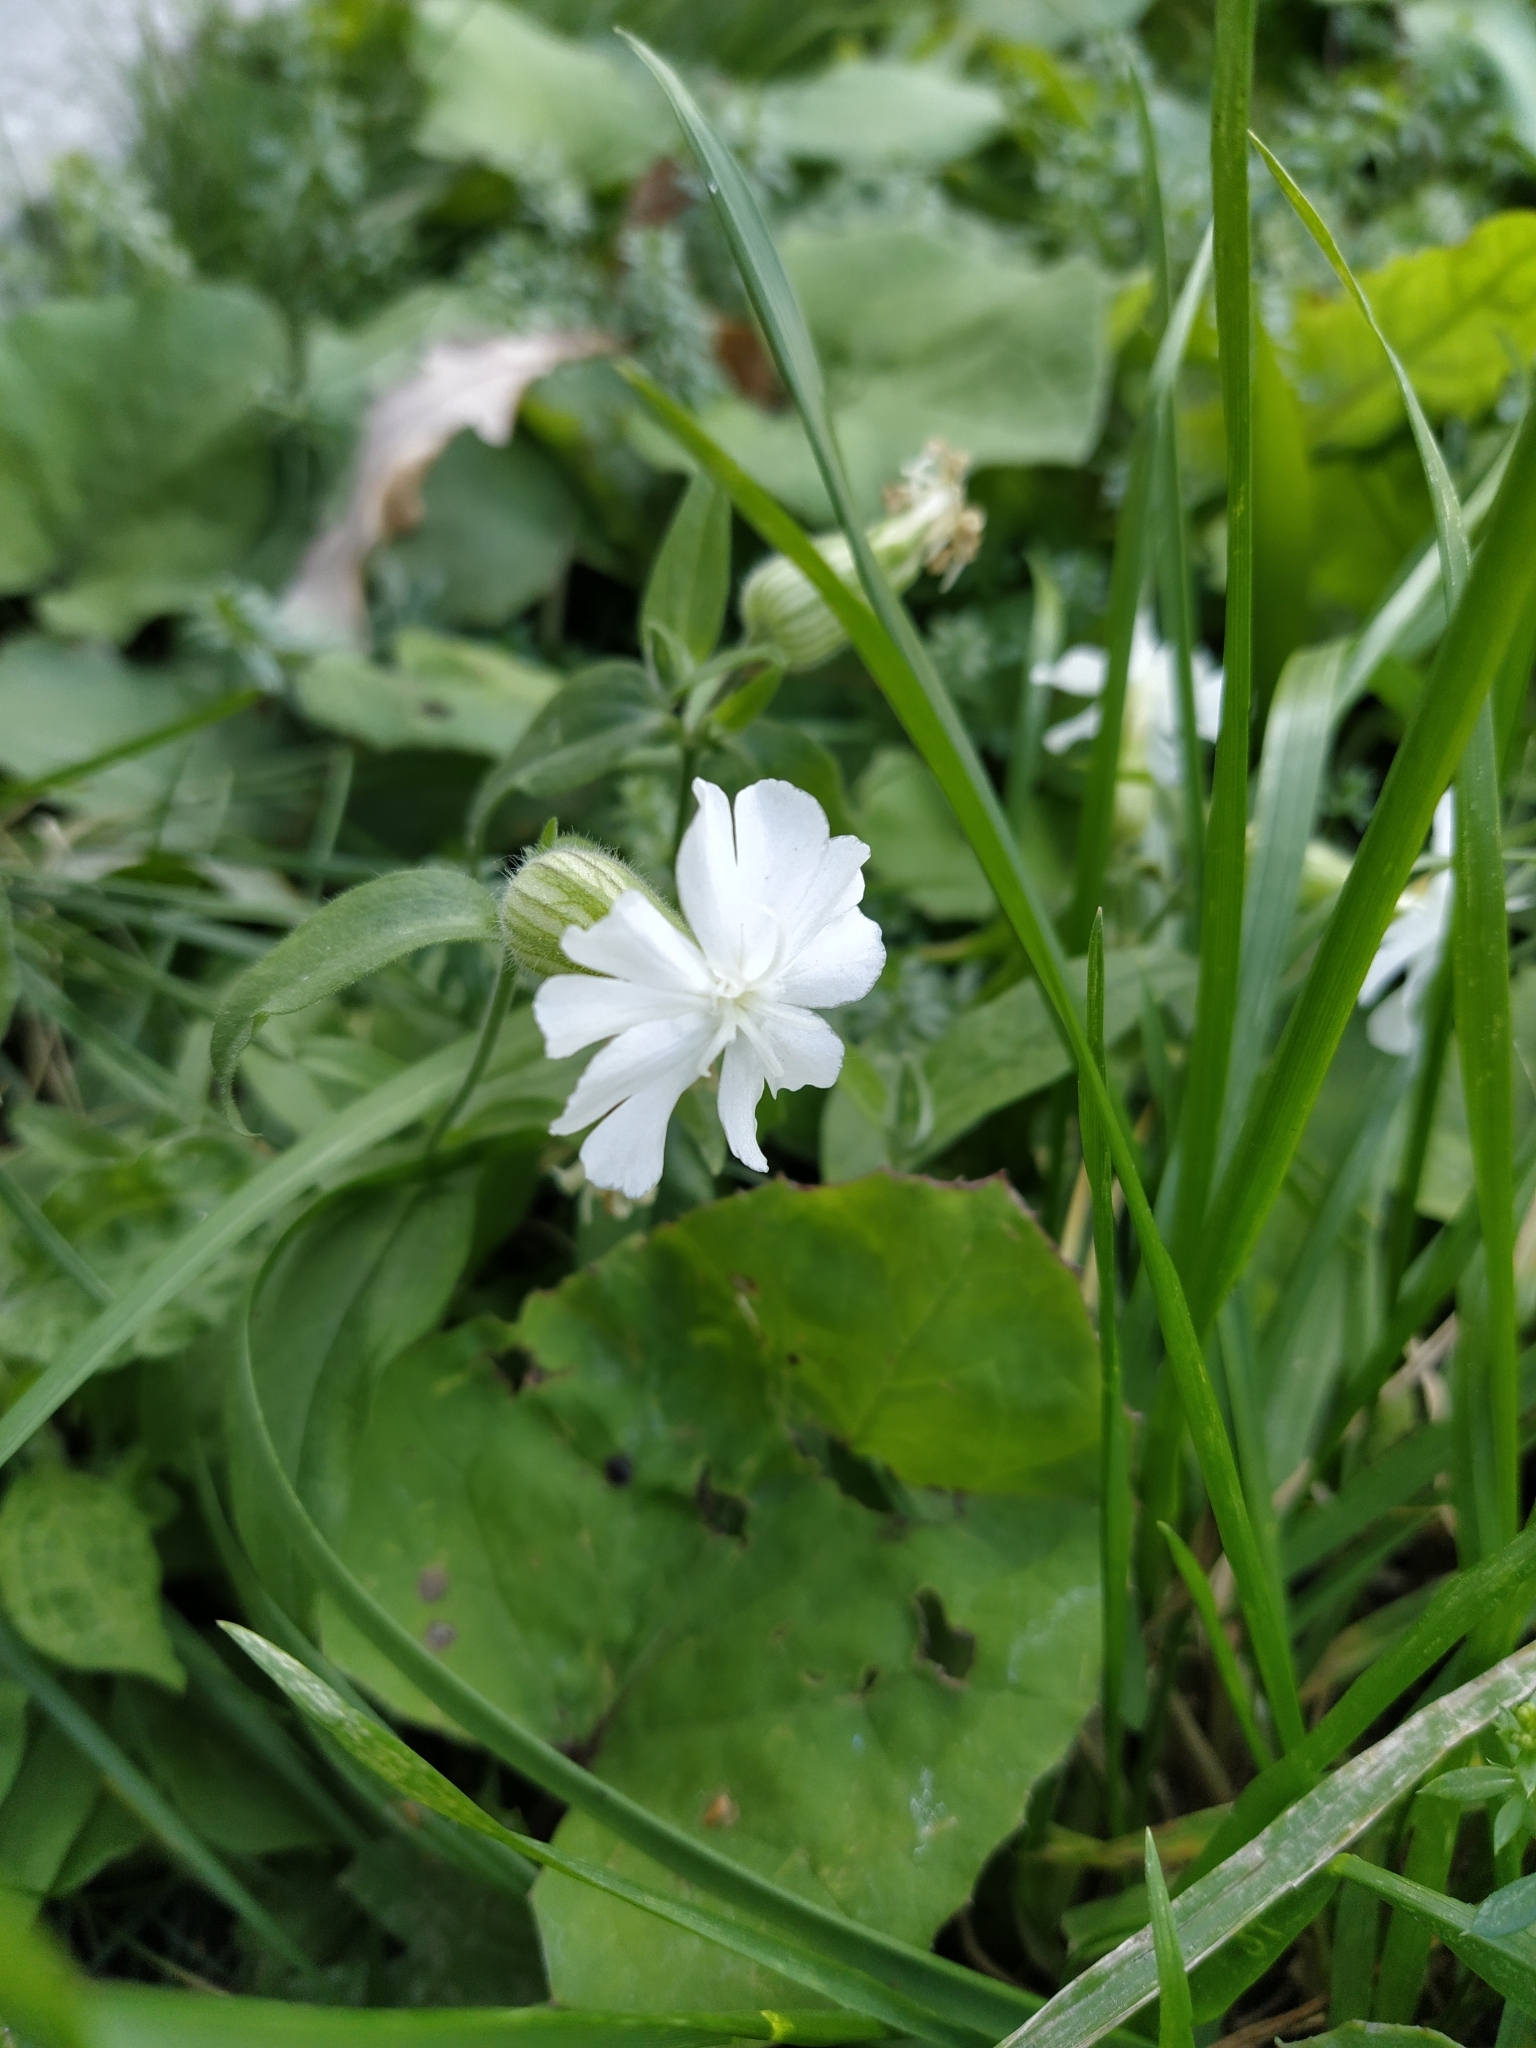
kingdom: Plantae
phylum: Tracheophyta
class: Magnoliopsida
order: Caryophyllales
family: Caryophyllaceae
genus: Silene
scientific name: Silene latifolia
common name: White campion
